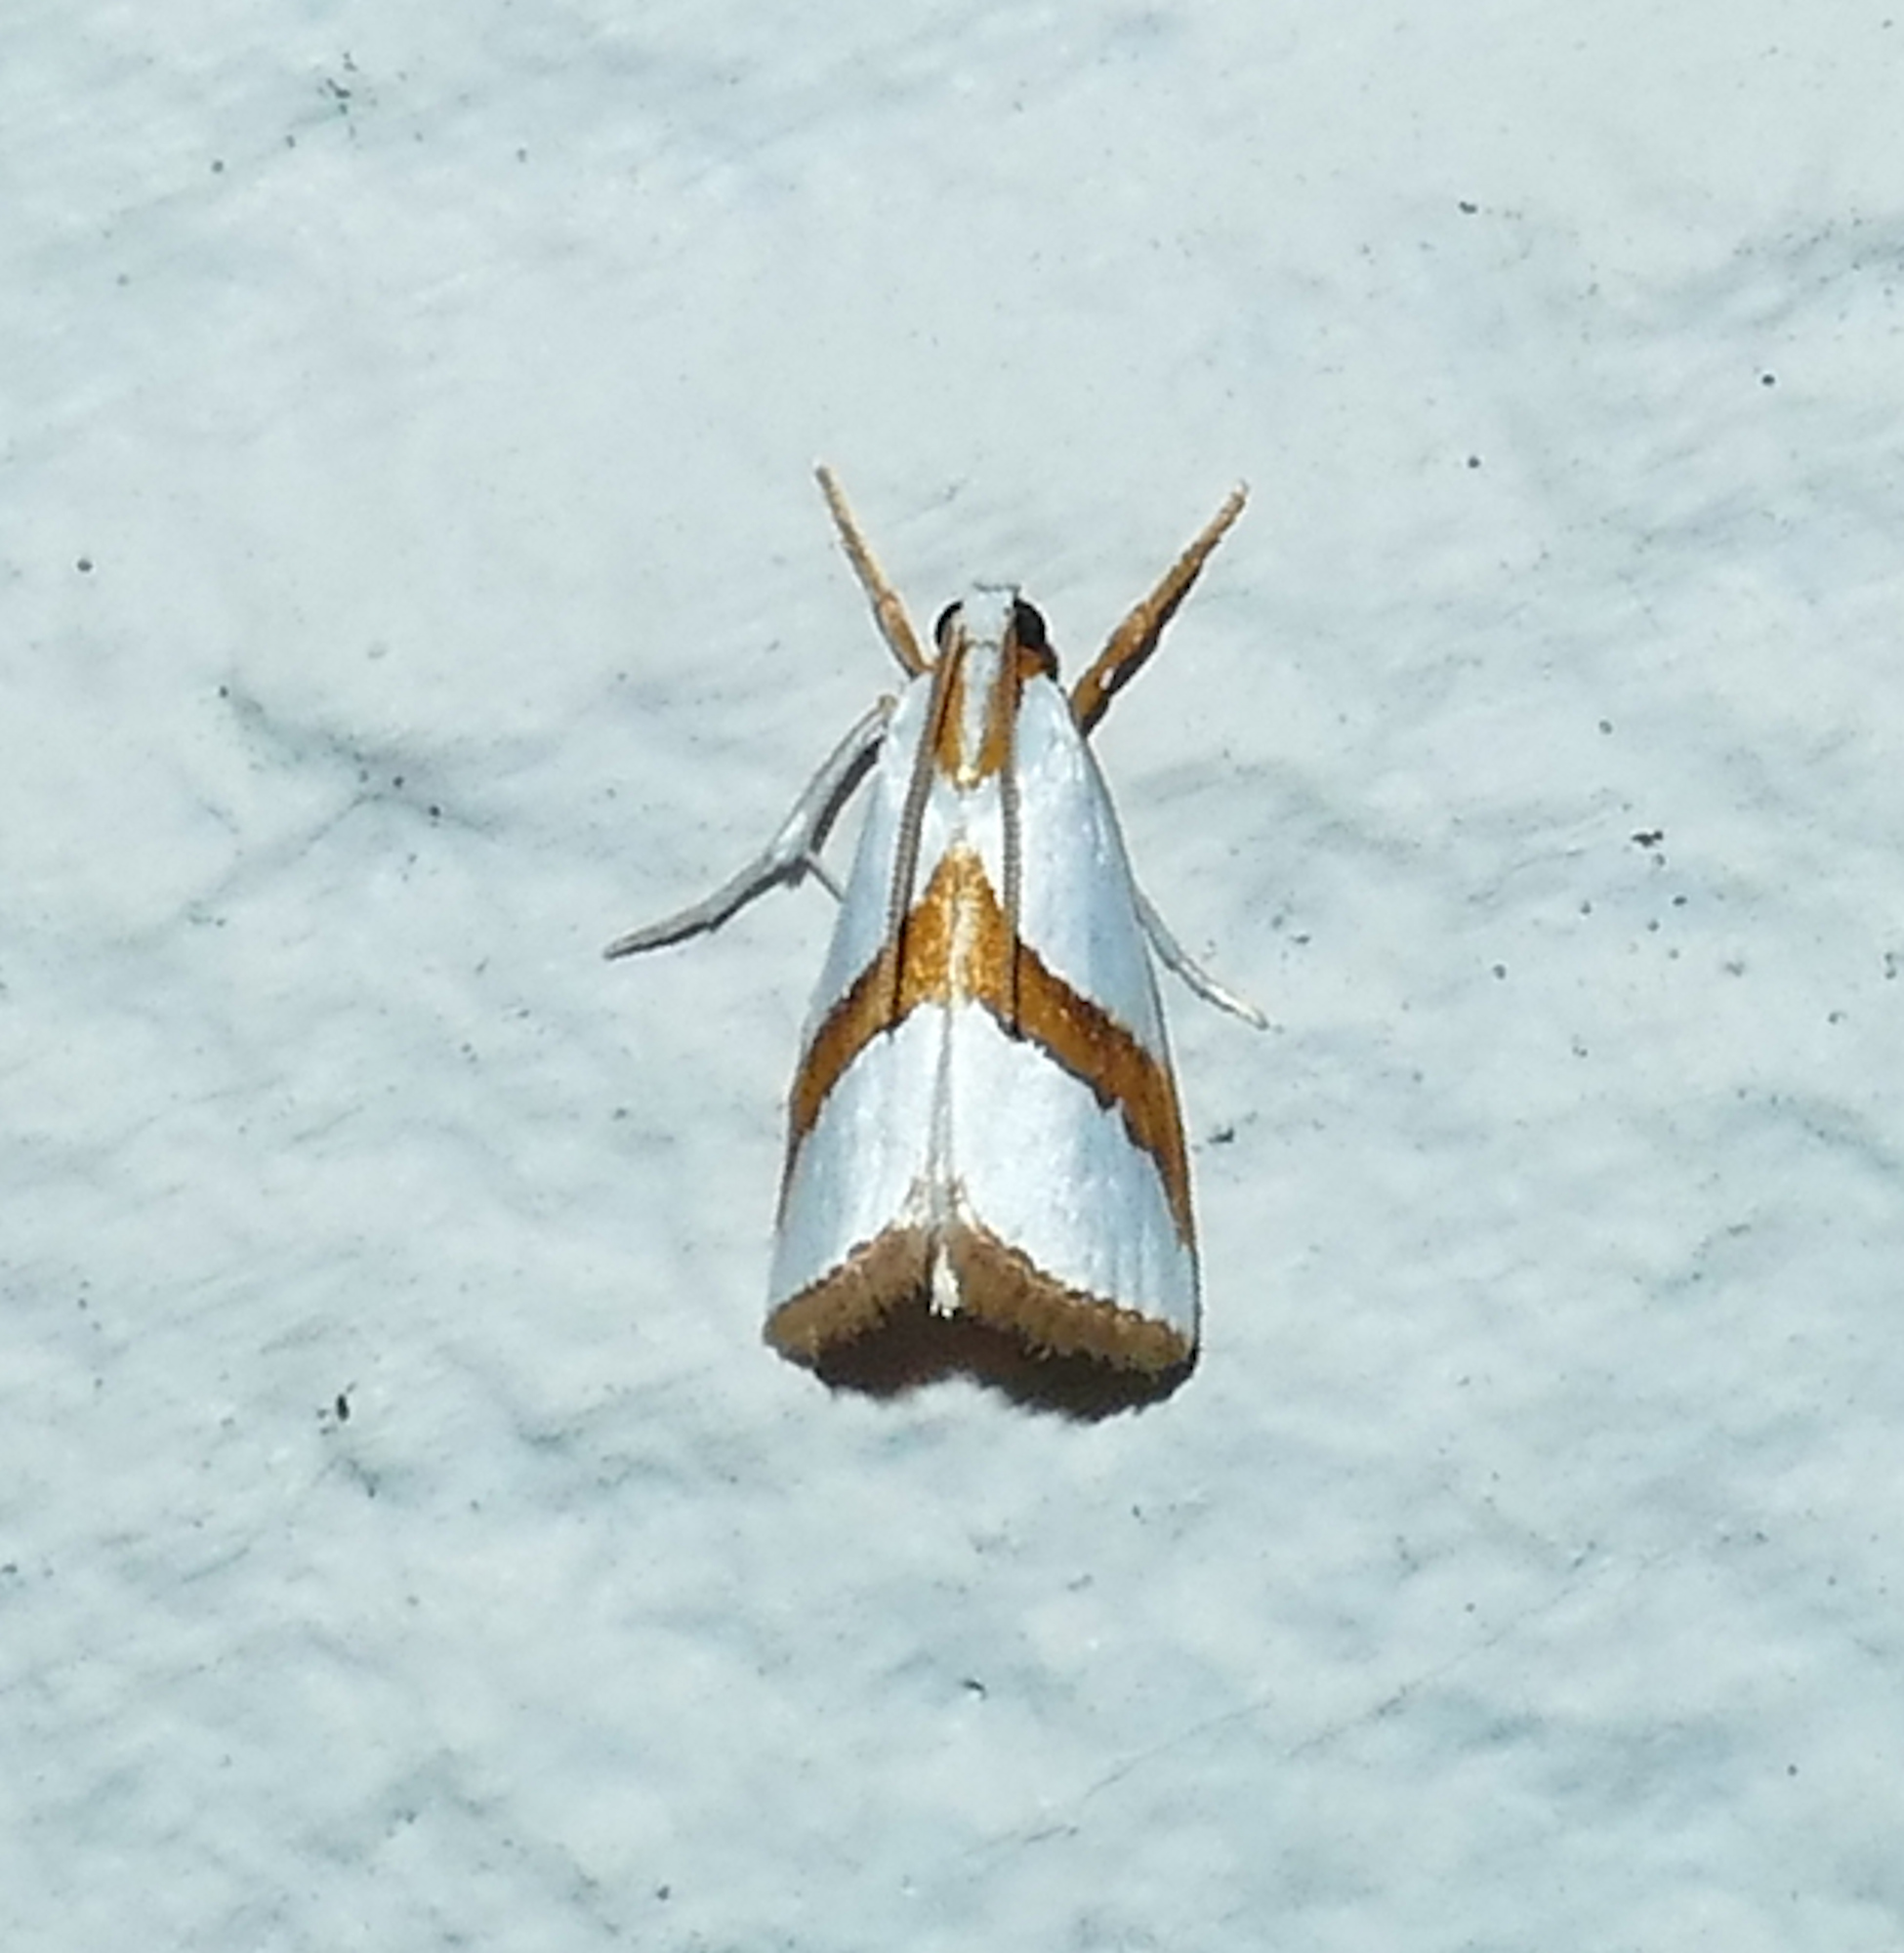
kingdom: Animalia
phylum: Arthropoda
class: Insecta
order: Lepidoptera
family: Crambidae
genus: Vaxi
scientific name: Vaxi critica
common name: Straight-lined vaxi moth
